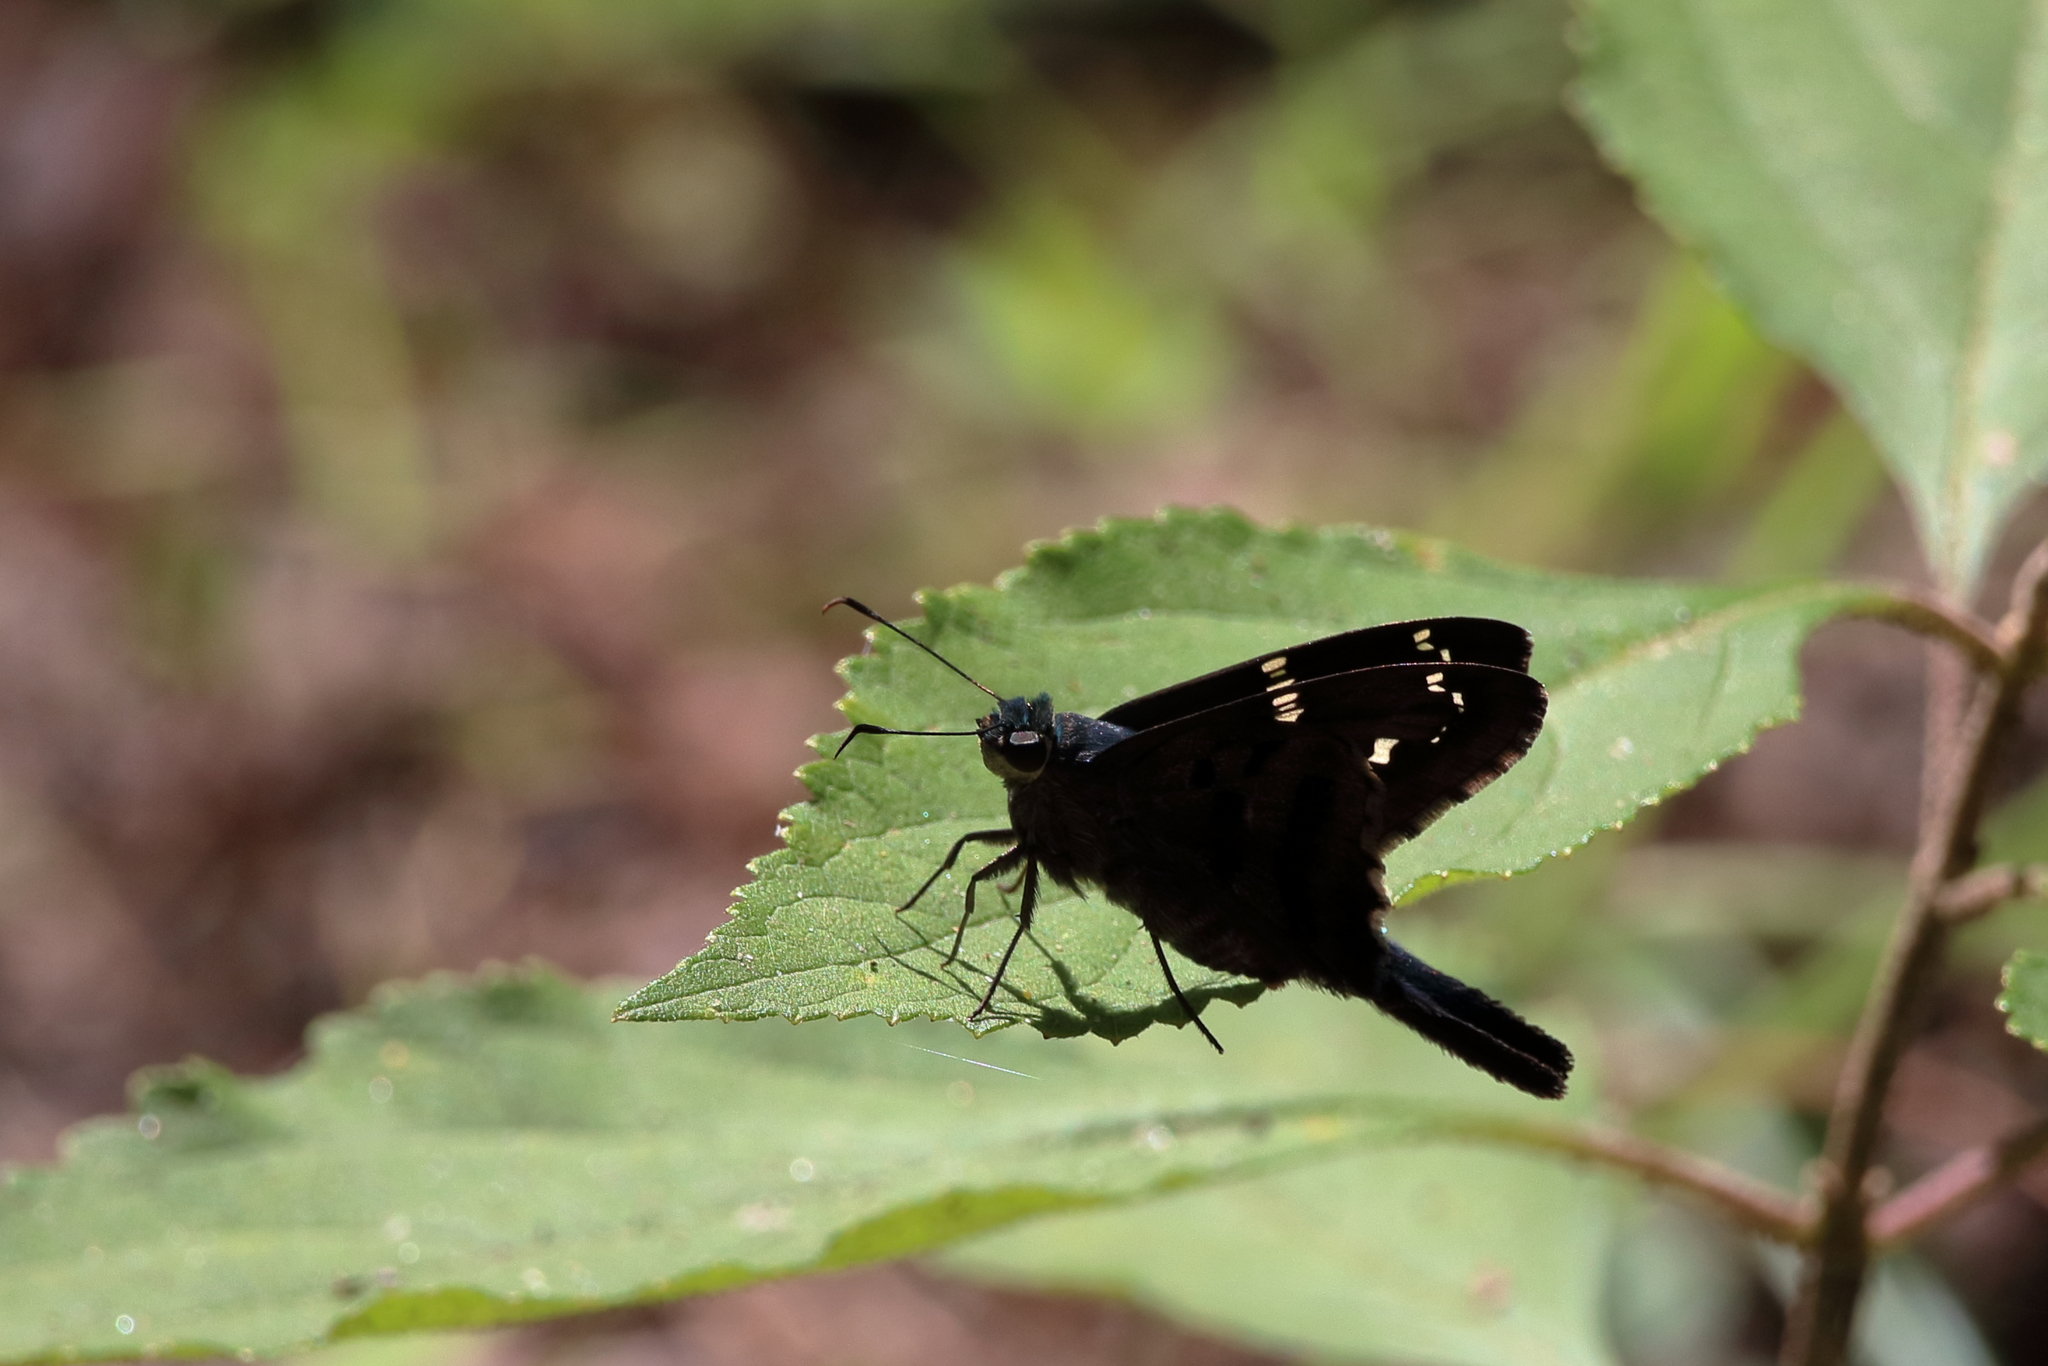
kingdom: Animalia
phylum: Arthropoda
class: Insecta
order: Lepidoptera
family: Hesperiidae
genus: Urbanus
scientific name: Urbanus proteus
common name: Long-tailed skipper
